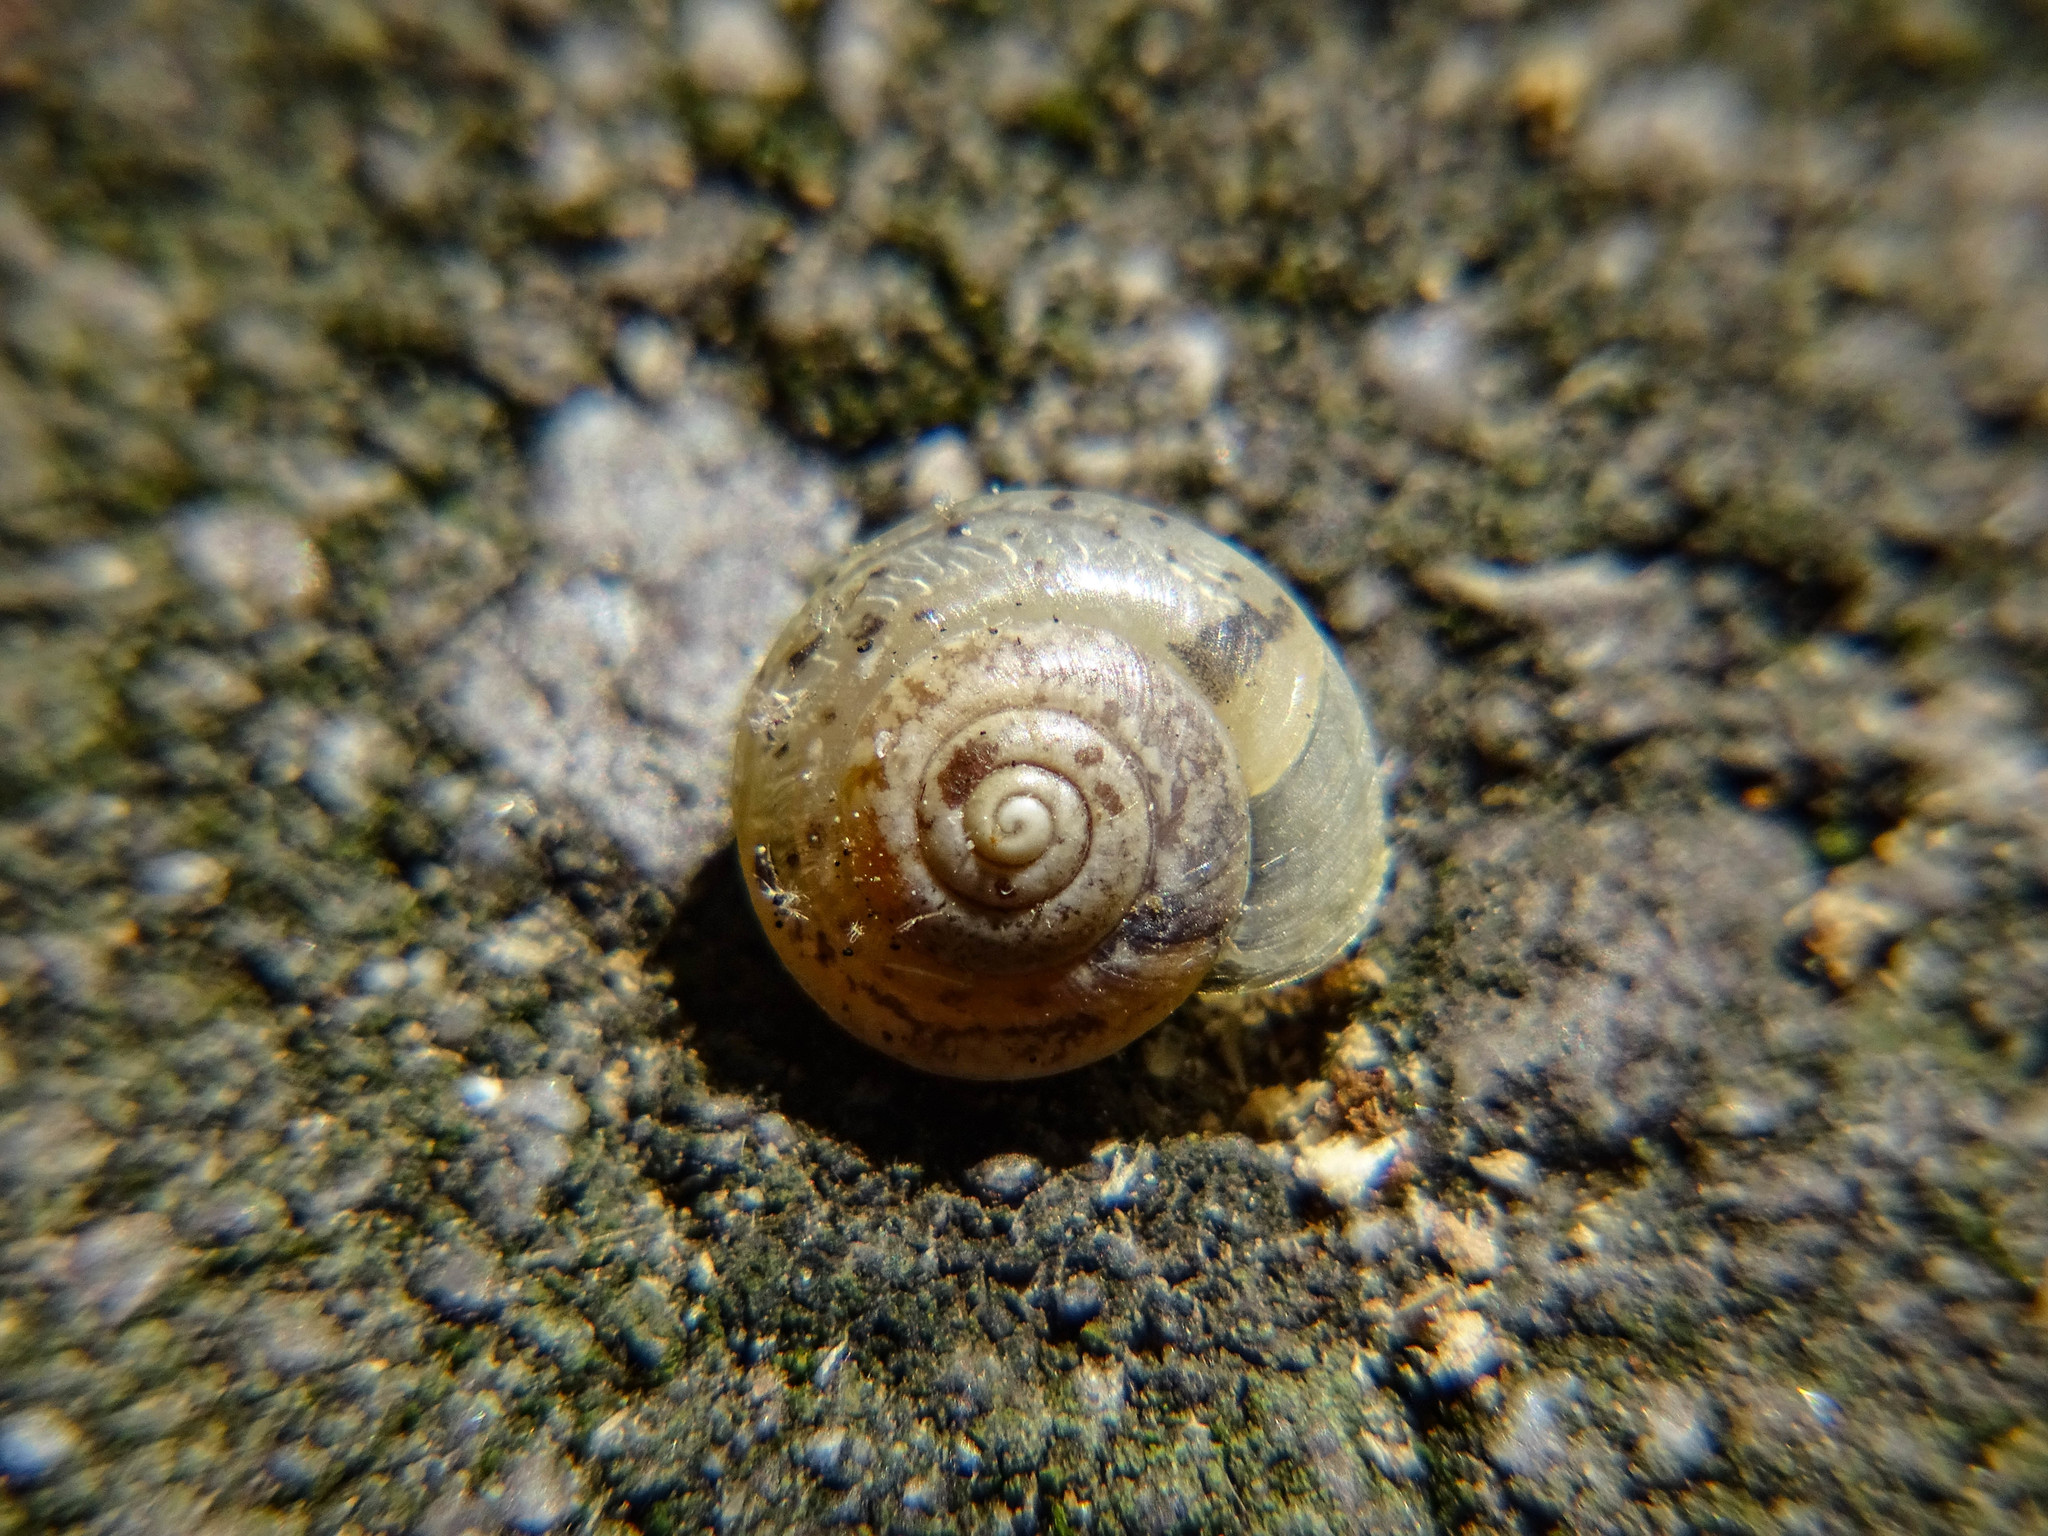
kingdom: Animalia
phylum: Mollusca
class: Gastropoda
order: Stylommatophora
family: Hygromiidae
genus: Hygromia
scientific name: Hygromia cinctella
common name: Girdled snail
